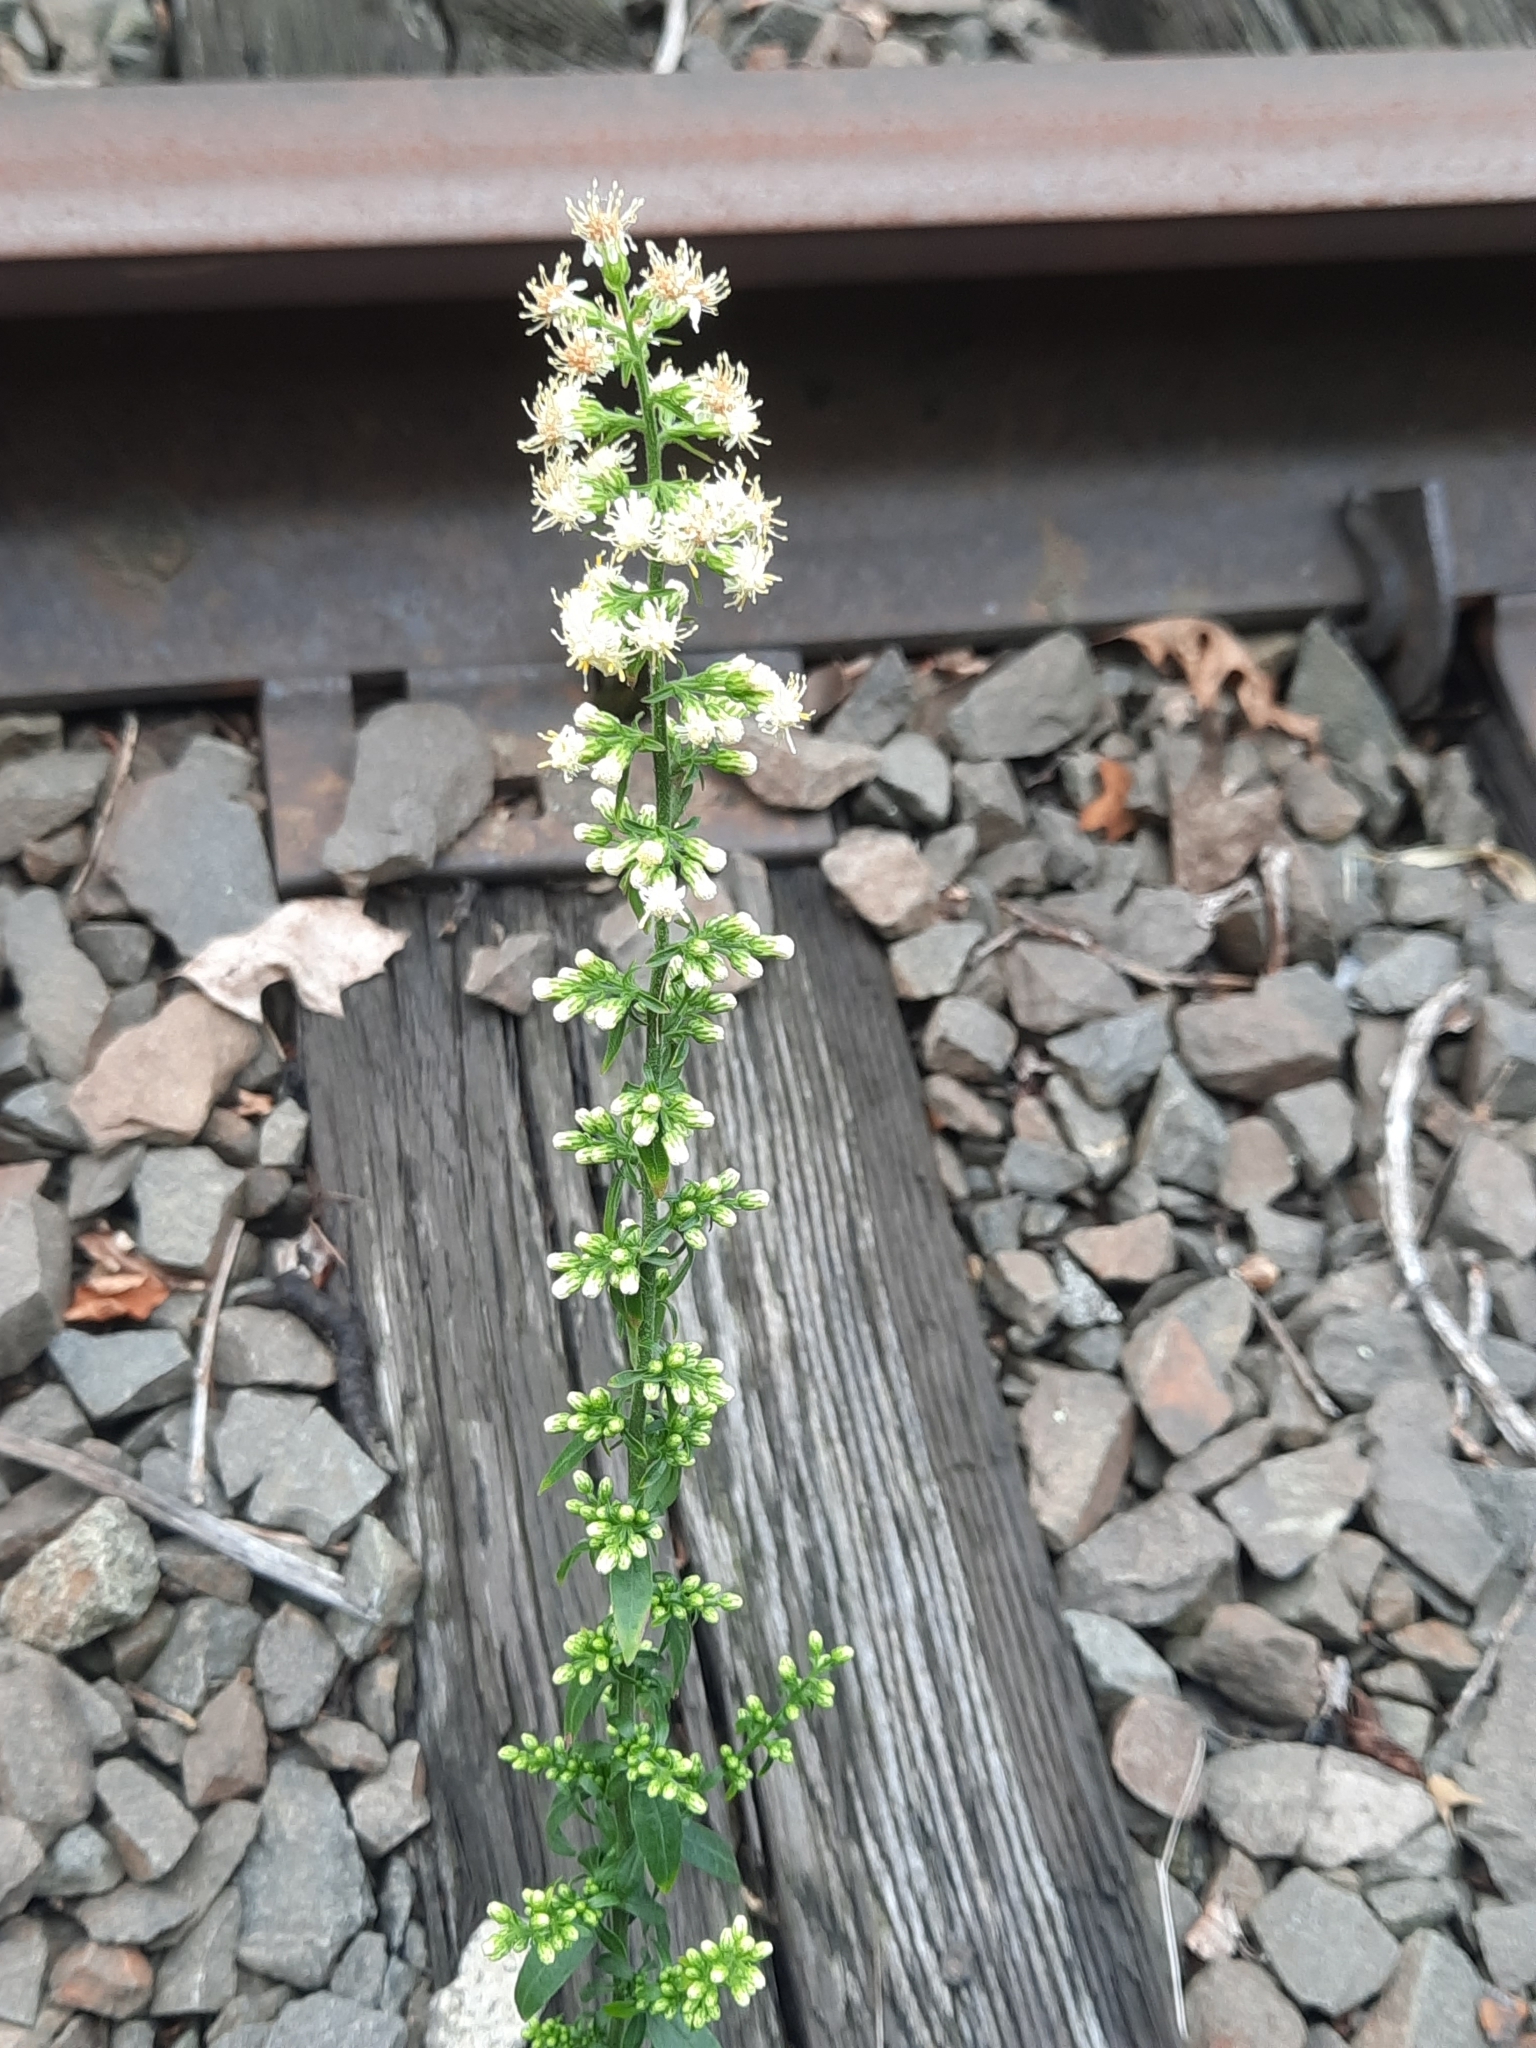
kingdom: Plantae
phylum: Tracheophyta
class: Magnoliopsida
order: Asterales
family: Asteraceae
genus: Solidago
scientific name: Solidago bicolor
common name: Silverrod
